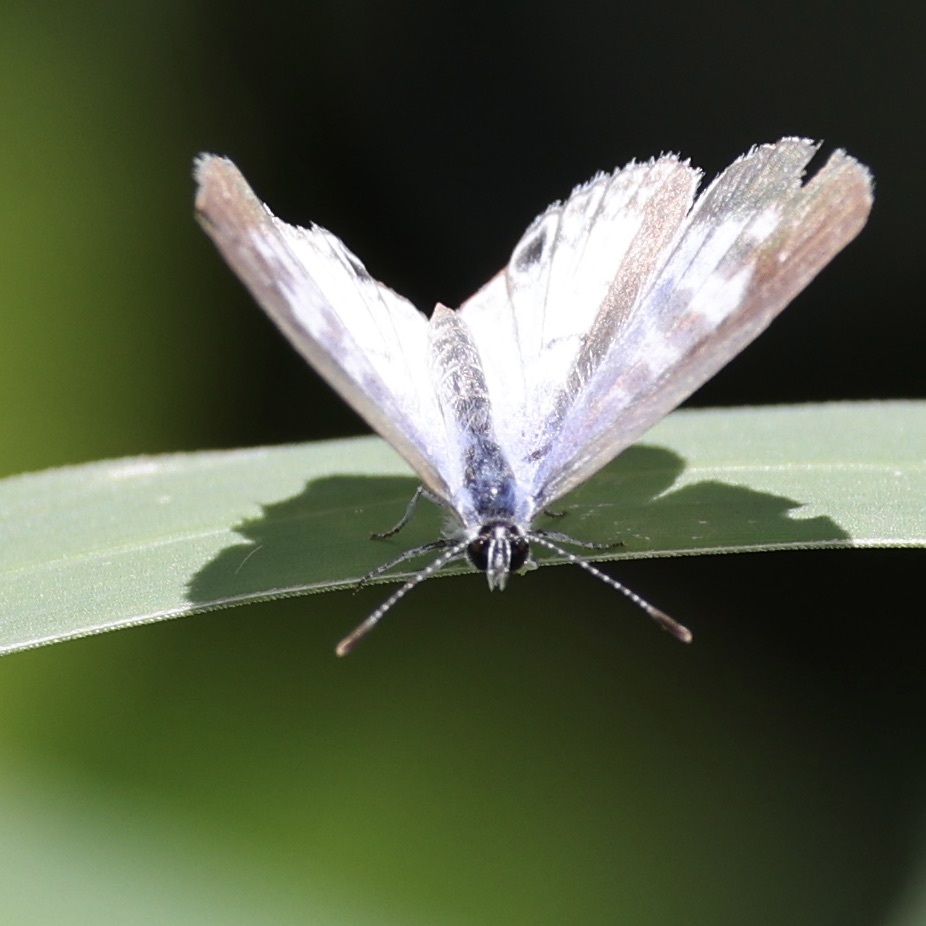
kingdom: Animalia
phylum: Arthropoda
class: Insecta
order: Lepidoptera
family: Lycaenidae
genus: Leptotes
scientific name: Leptotes cassius
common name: Cassius blue
